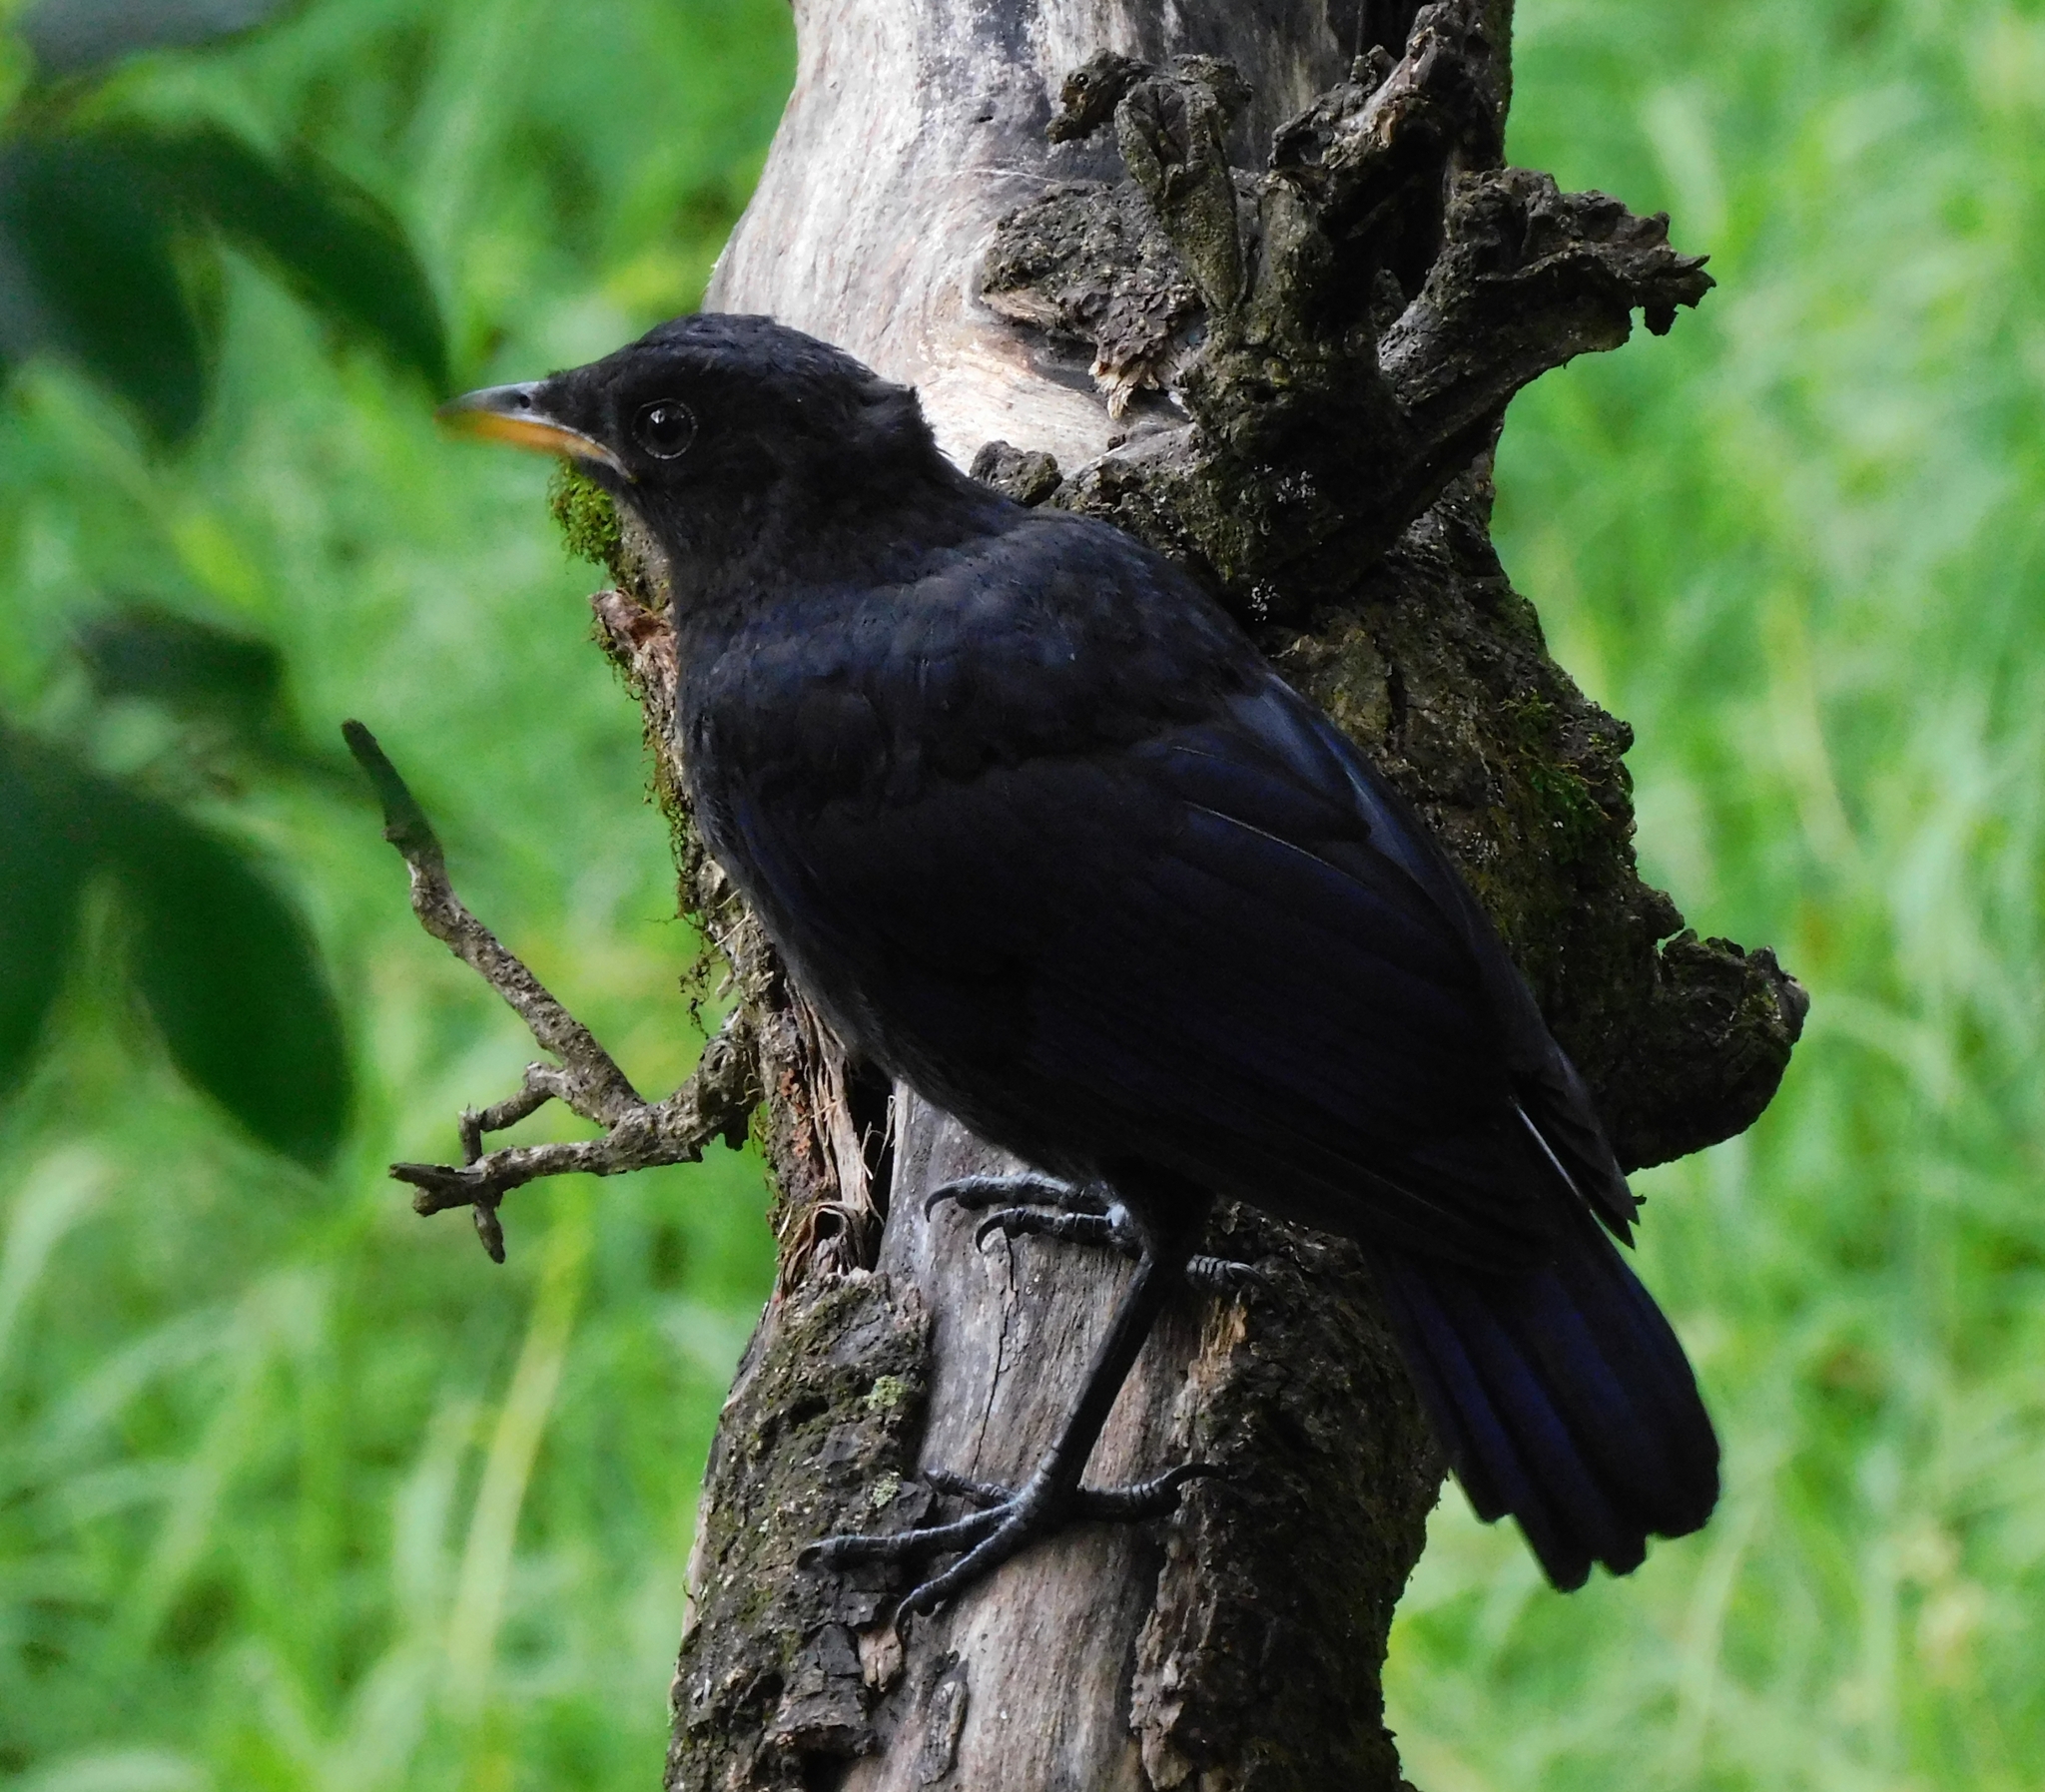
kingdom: Animalia
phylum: Chordata
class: Aves
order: Passeriformes
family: Muscicapidae
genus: Myophonus
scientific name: Myophonus caeruleus
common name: Blue whistling-thrush
